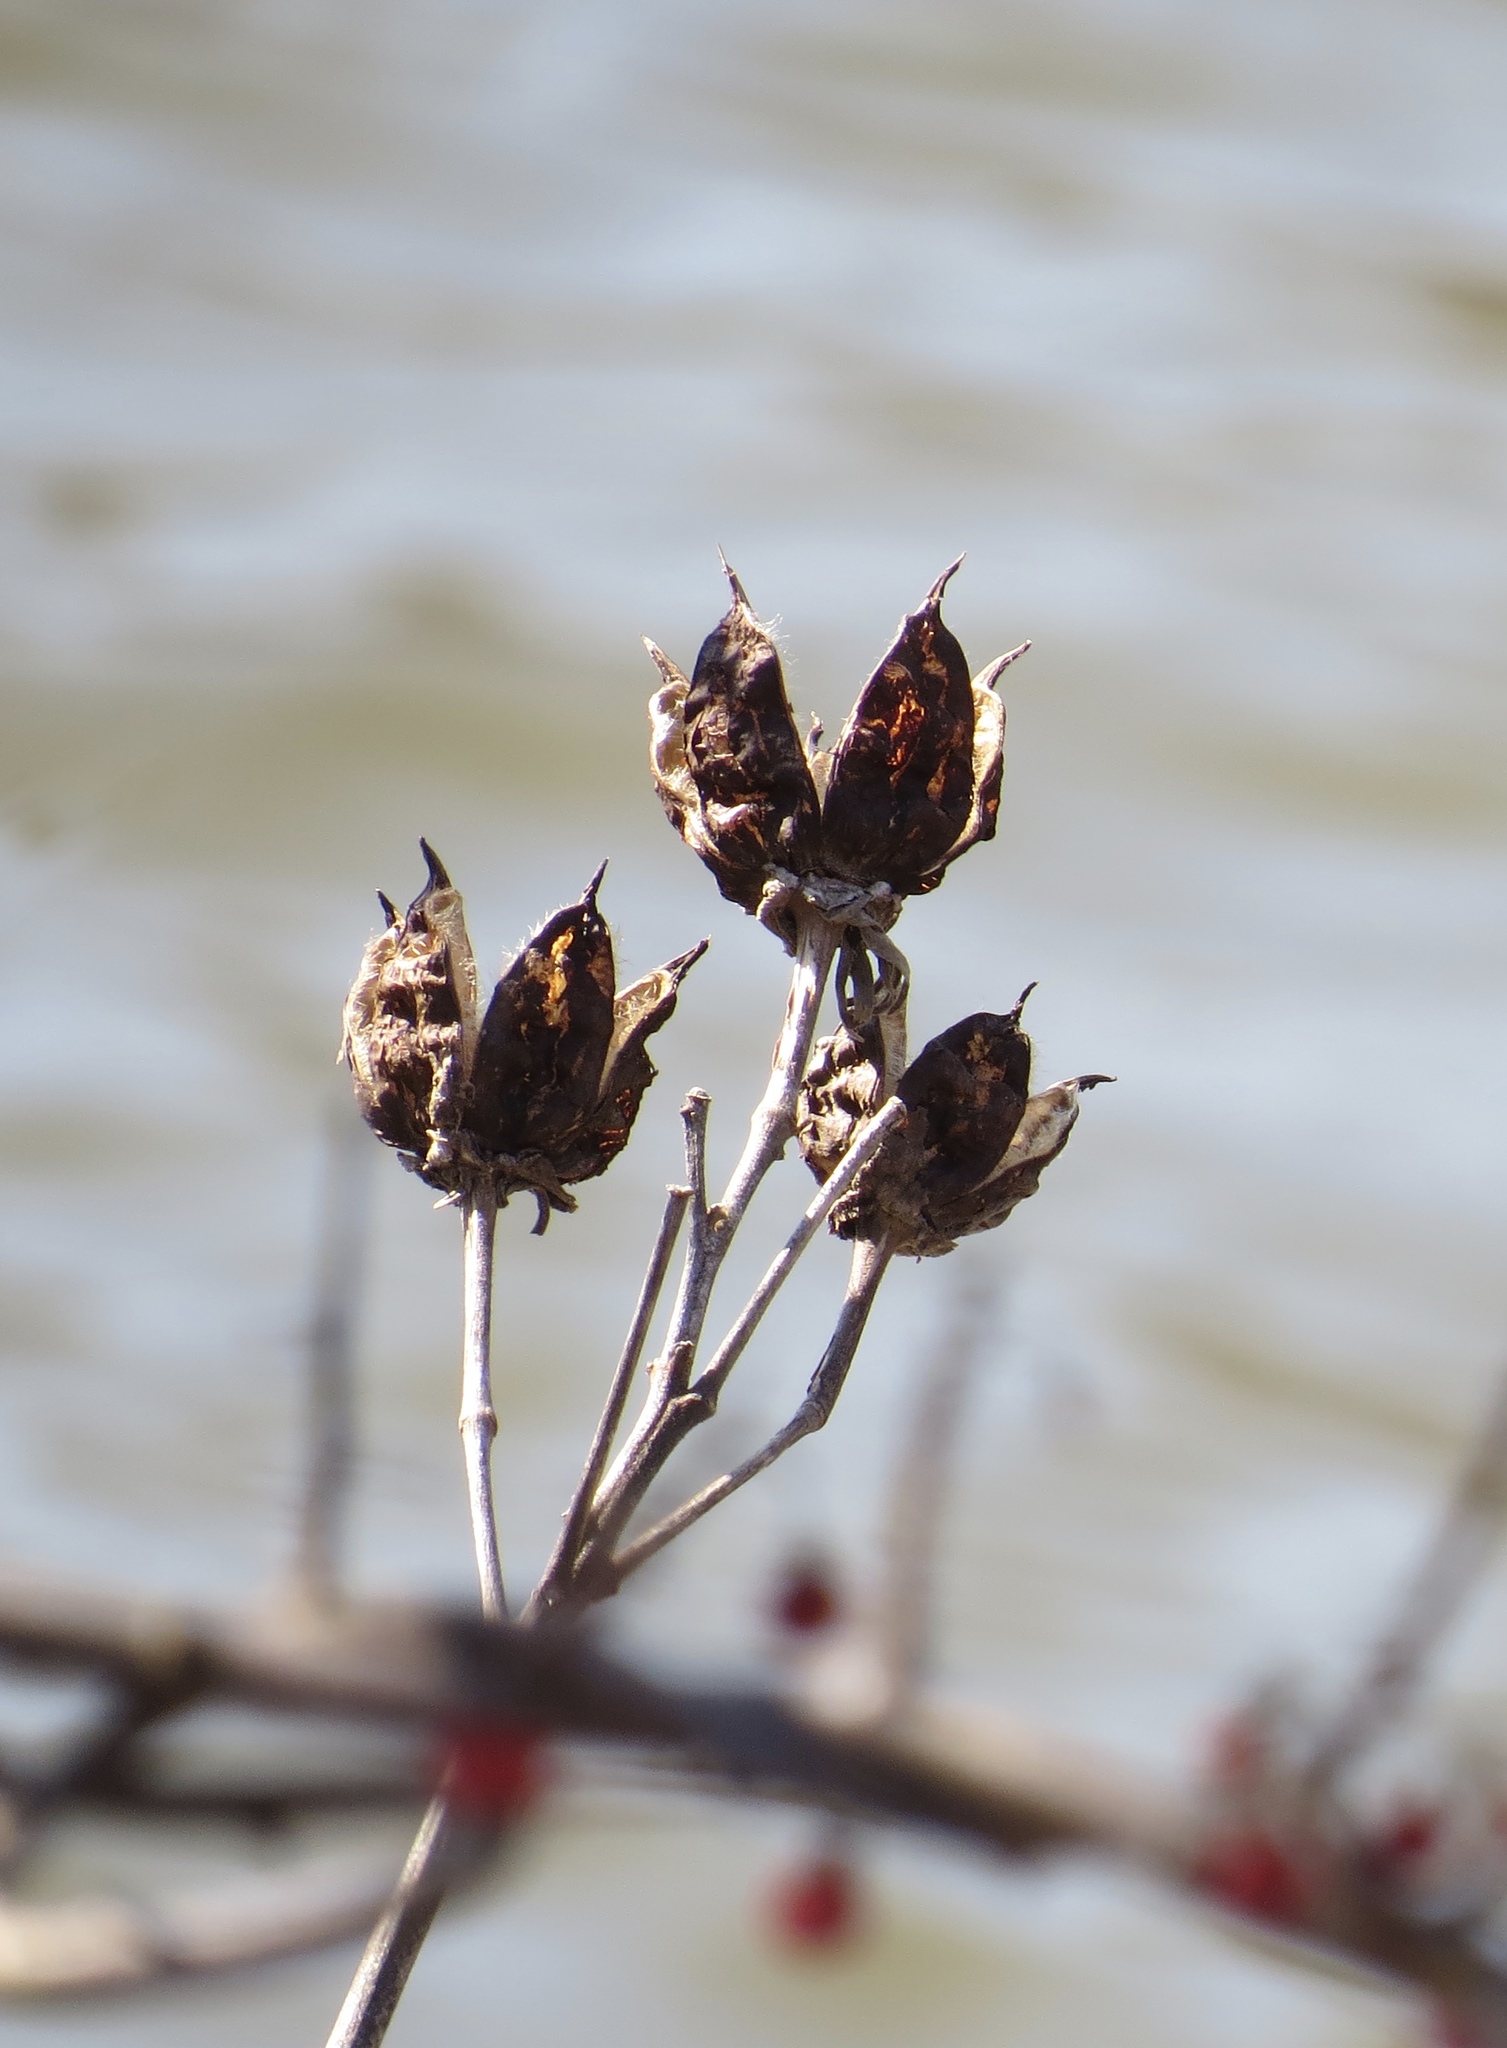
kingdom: Plantae
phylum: Tracheophyta
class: Magnoliopsida
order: Malvales
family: Malvaceae
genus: Hibiscus
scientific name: Hibiscus moscheutos
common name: Common rose-mallow
